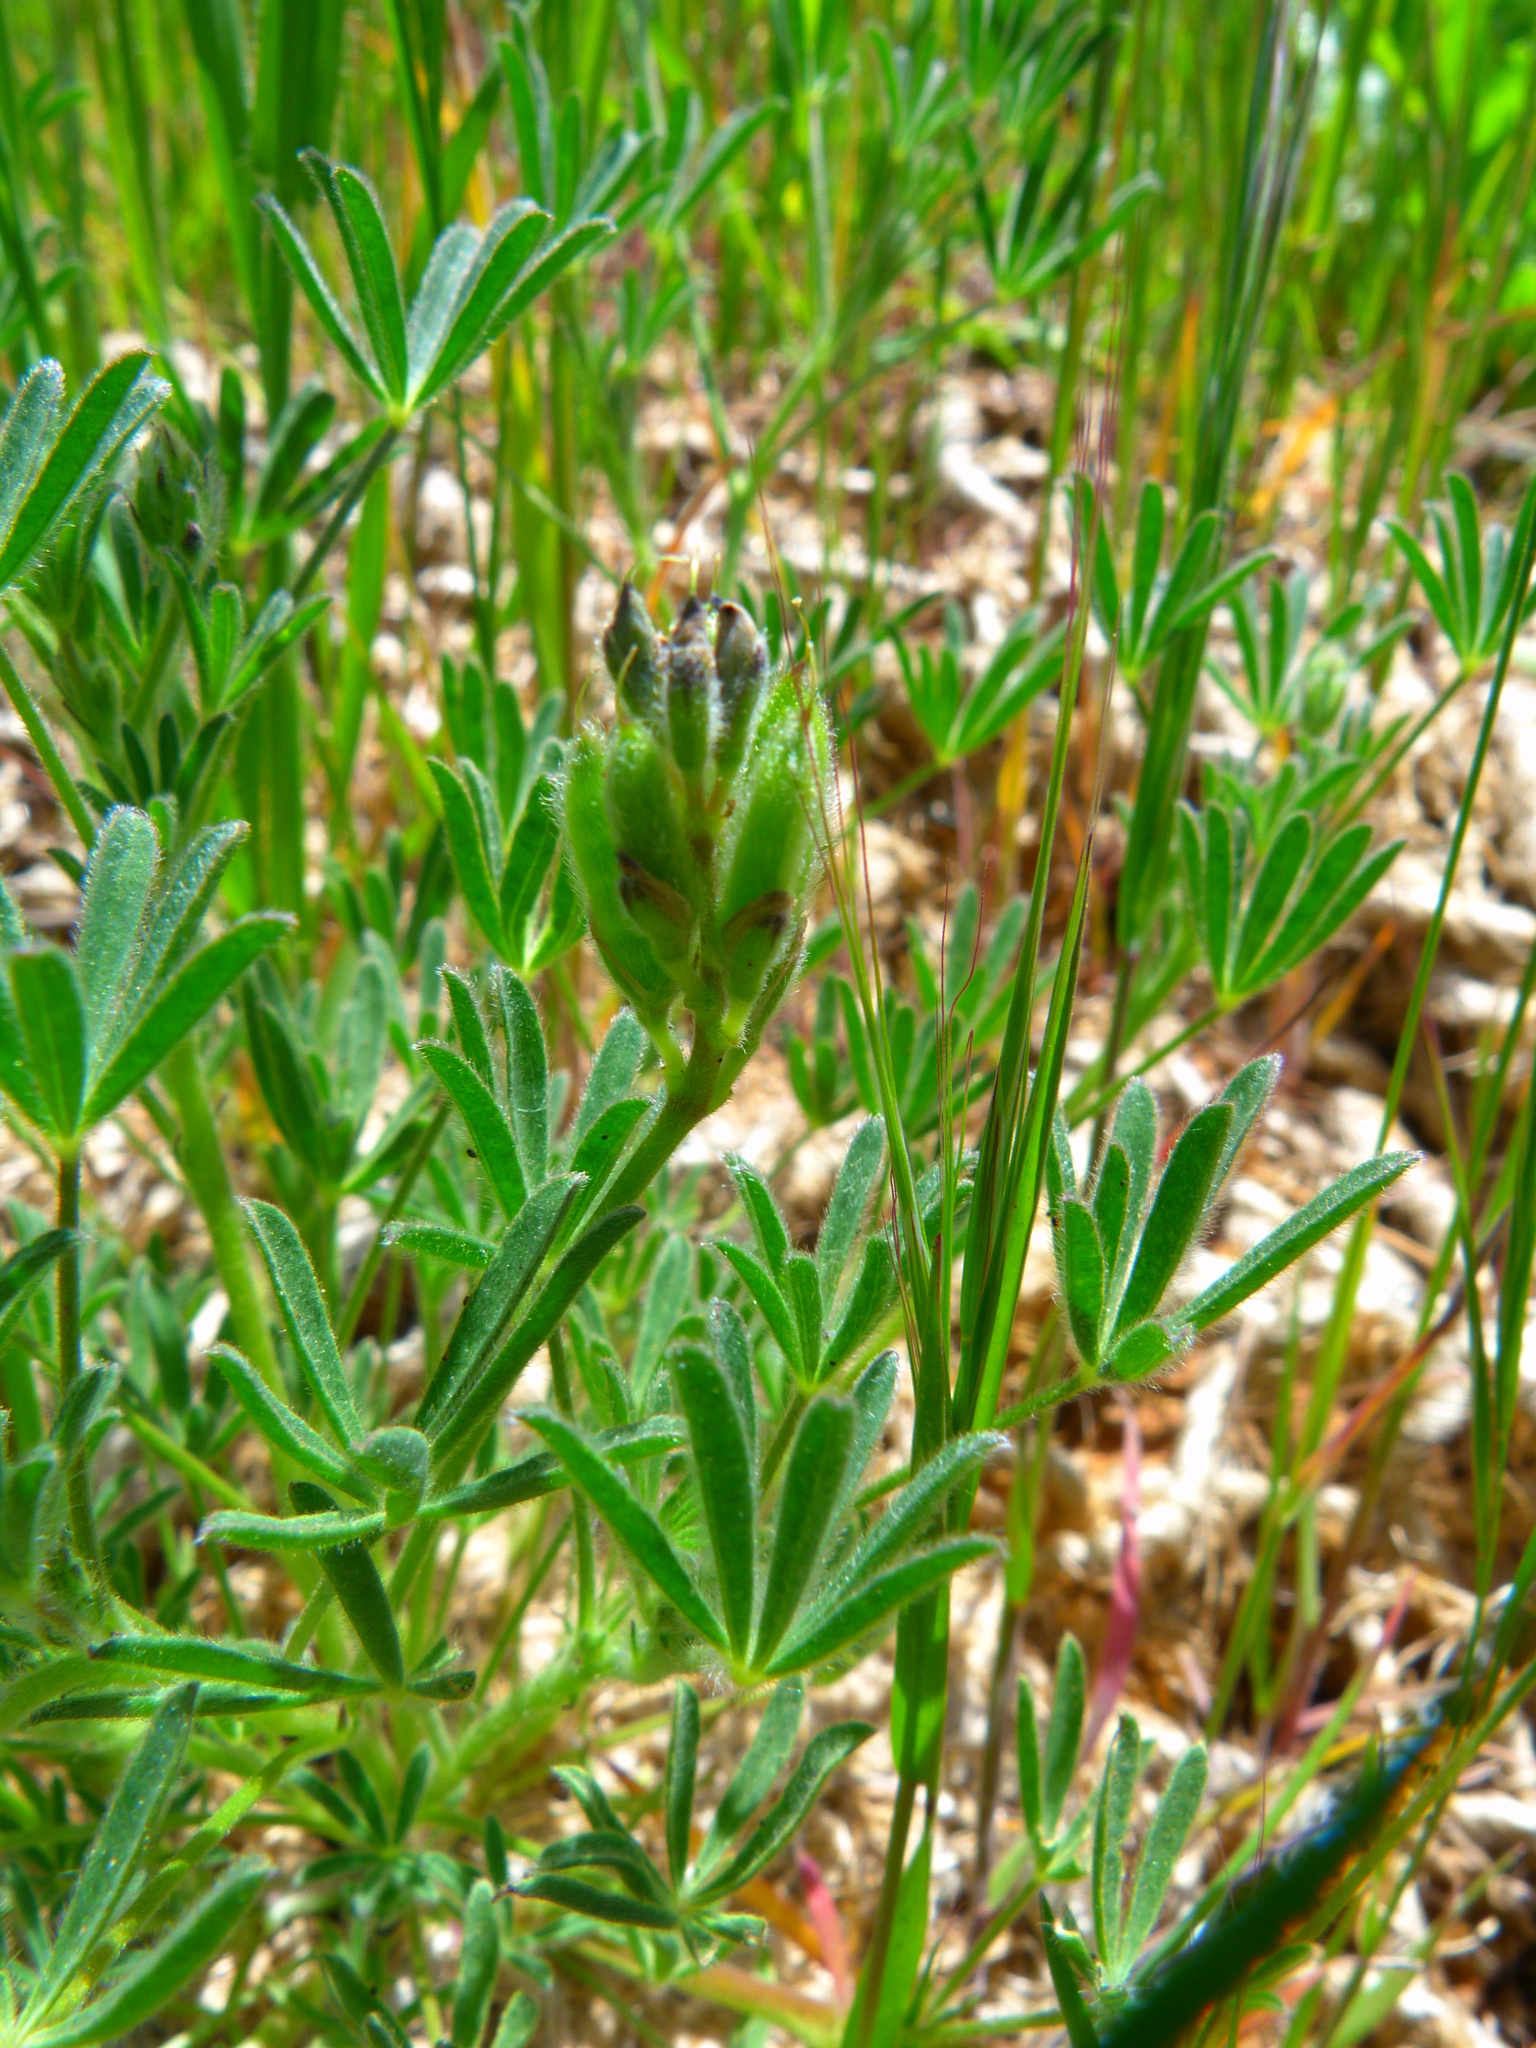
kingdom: Plantae
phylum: Tracheophyta
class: Magnoliopsida
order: Fabales
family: Fabaceae
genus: Lupinus
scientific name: Lupinus succulentus
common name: Arroyo lupine
